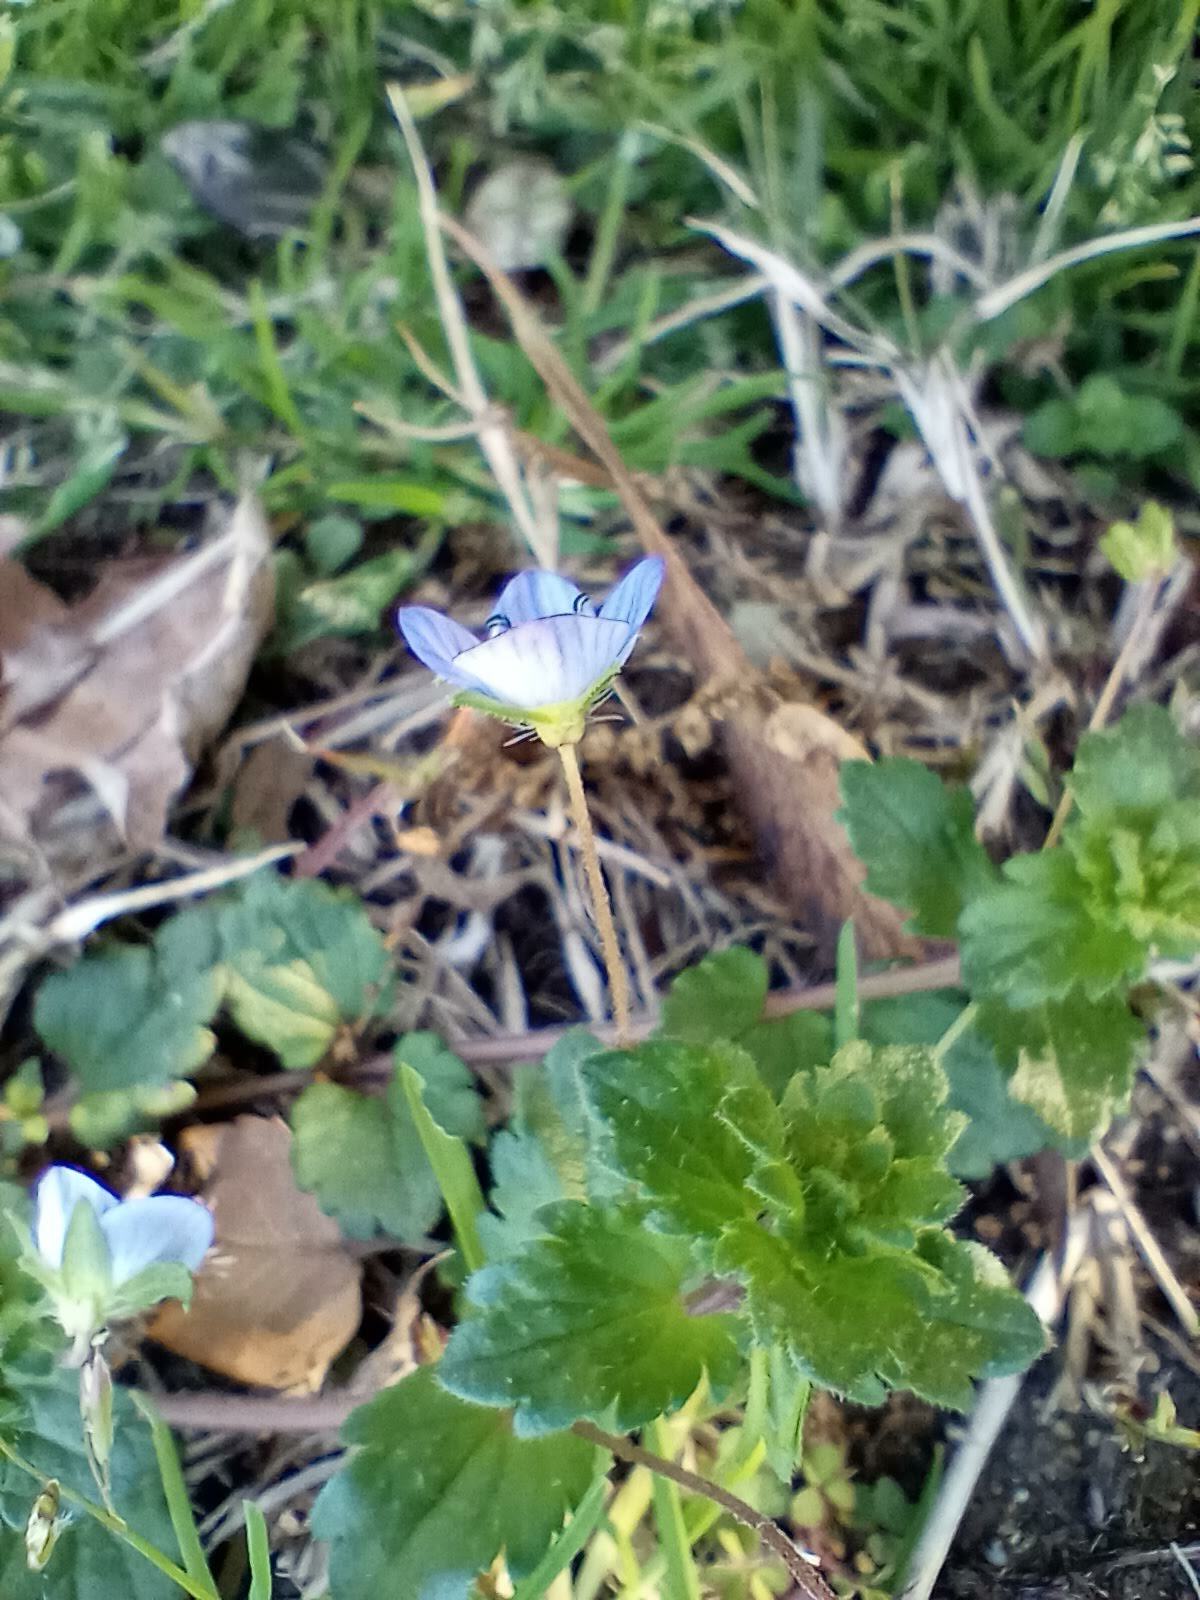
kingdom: Plantae
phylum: Tracheophyta
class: Magnoliopsida
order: Lamiales
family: Plantaginaceae
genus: Veronica
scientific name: Veronica persica
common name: Common field-speedwell
